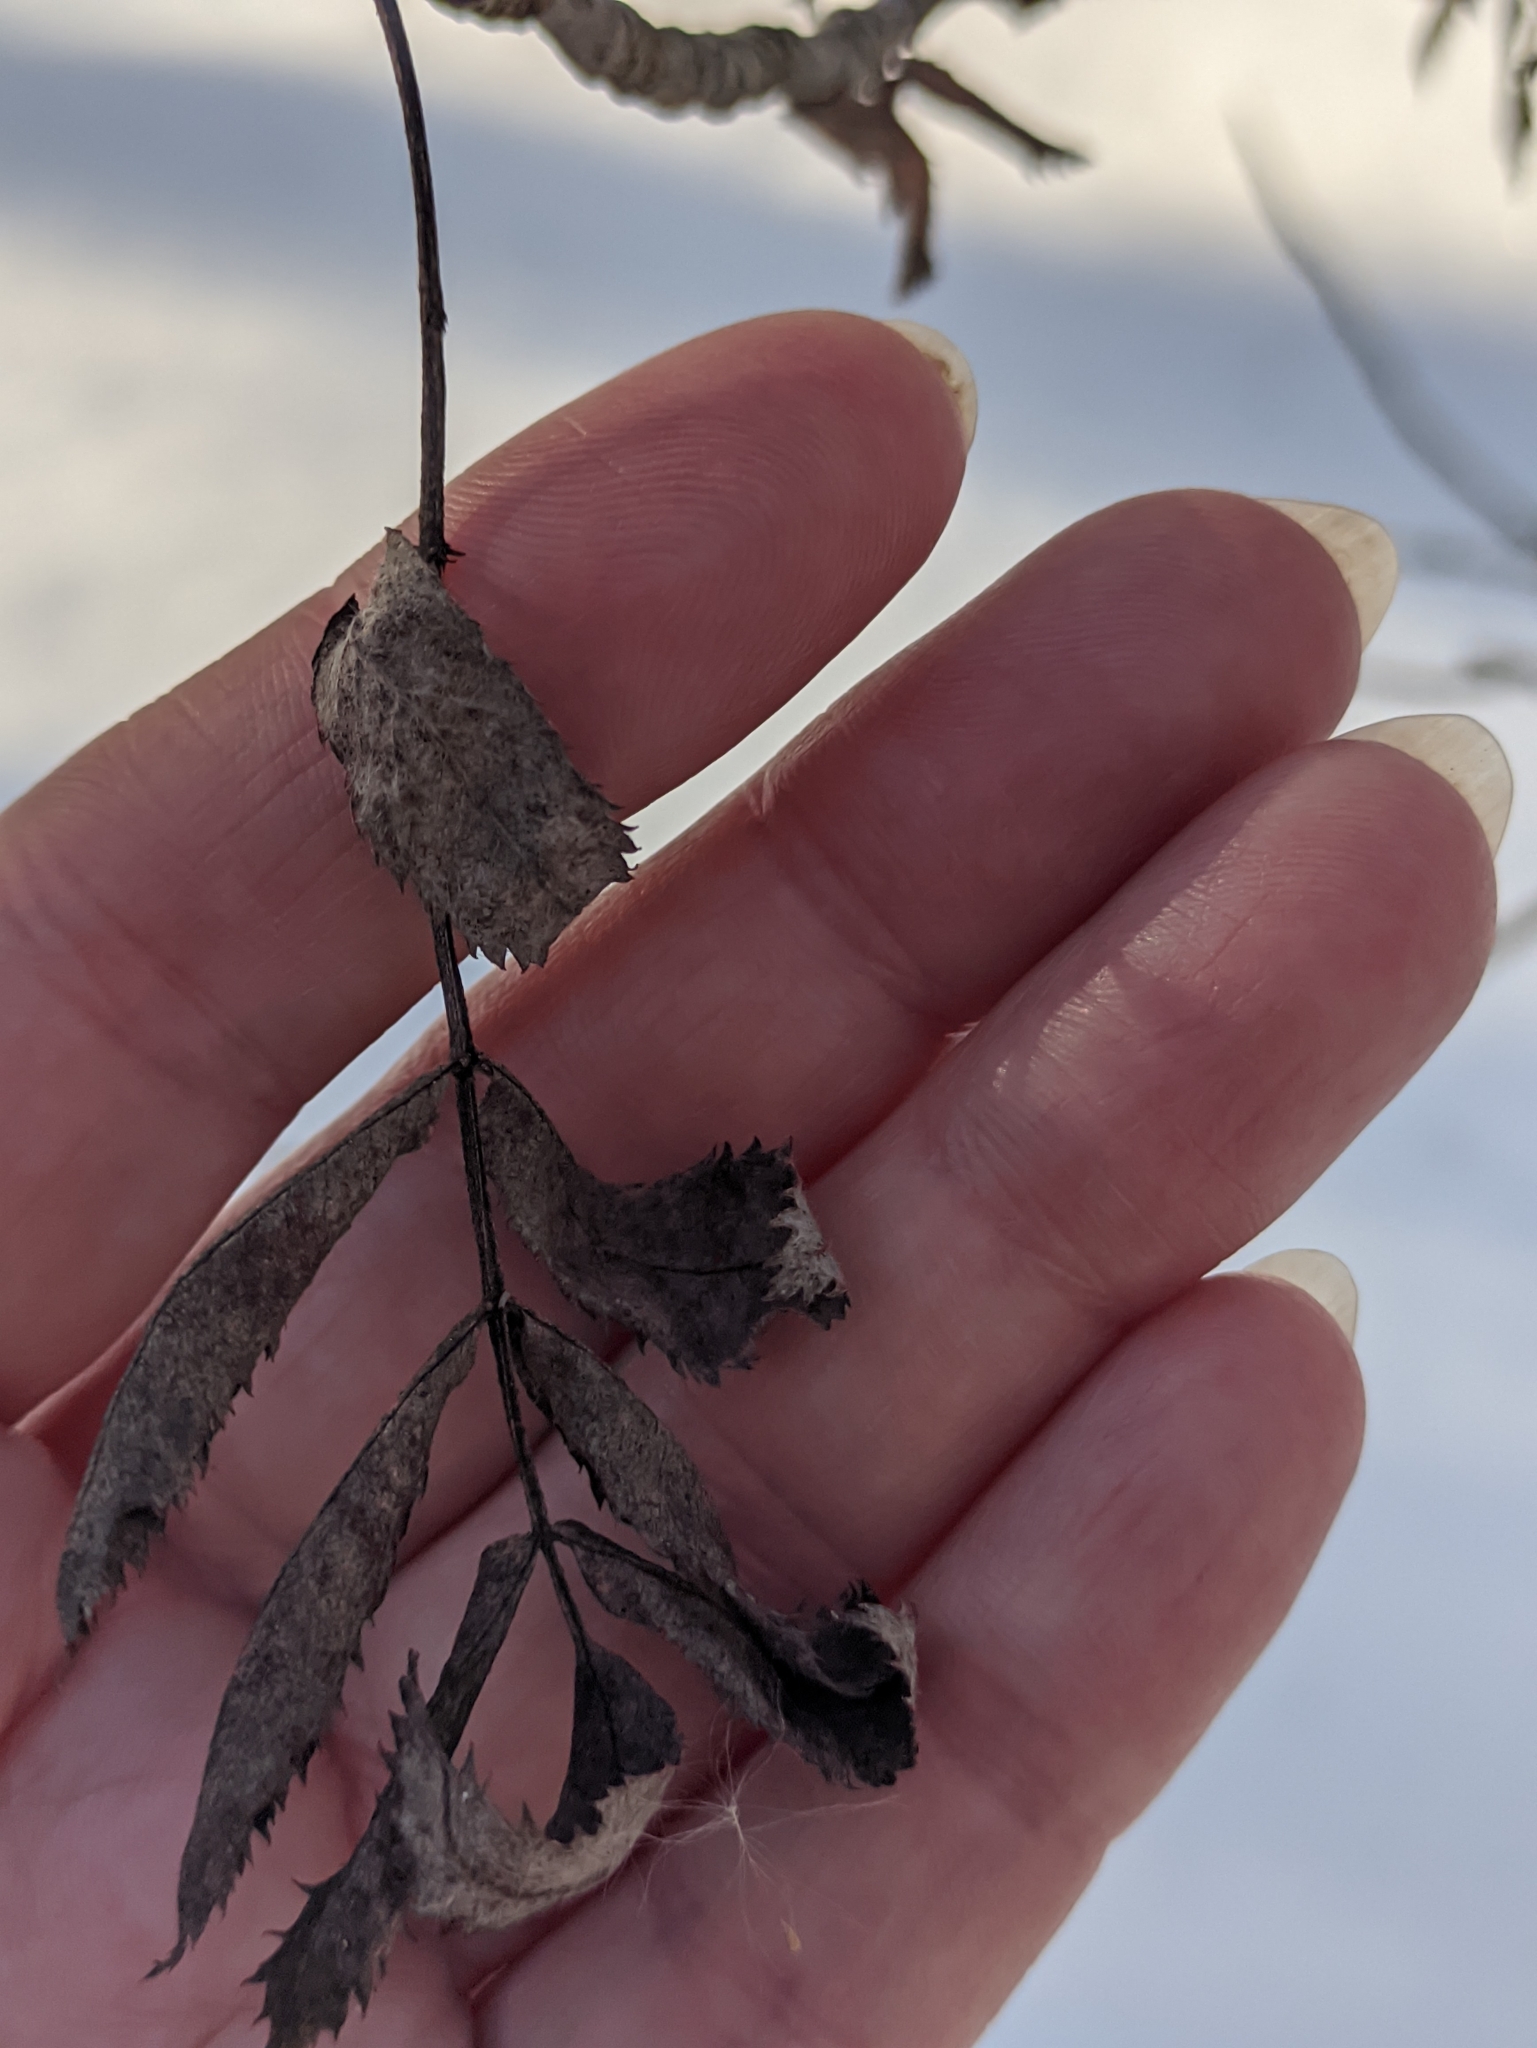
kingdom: Plantae
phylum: Tracheophyta
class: Magnoliopsida
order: Rosales
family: Rosaceae
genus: Sorbus
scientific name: Sorbus aucuparia
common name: Rowan
